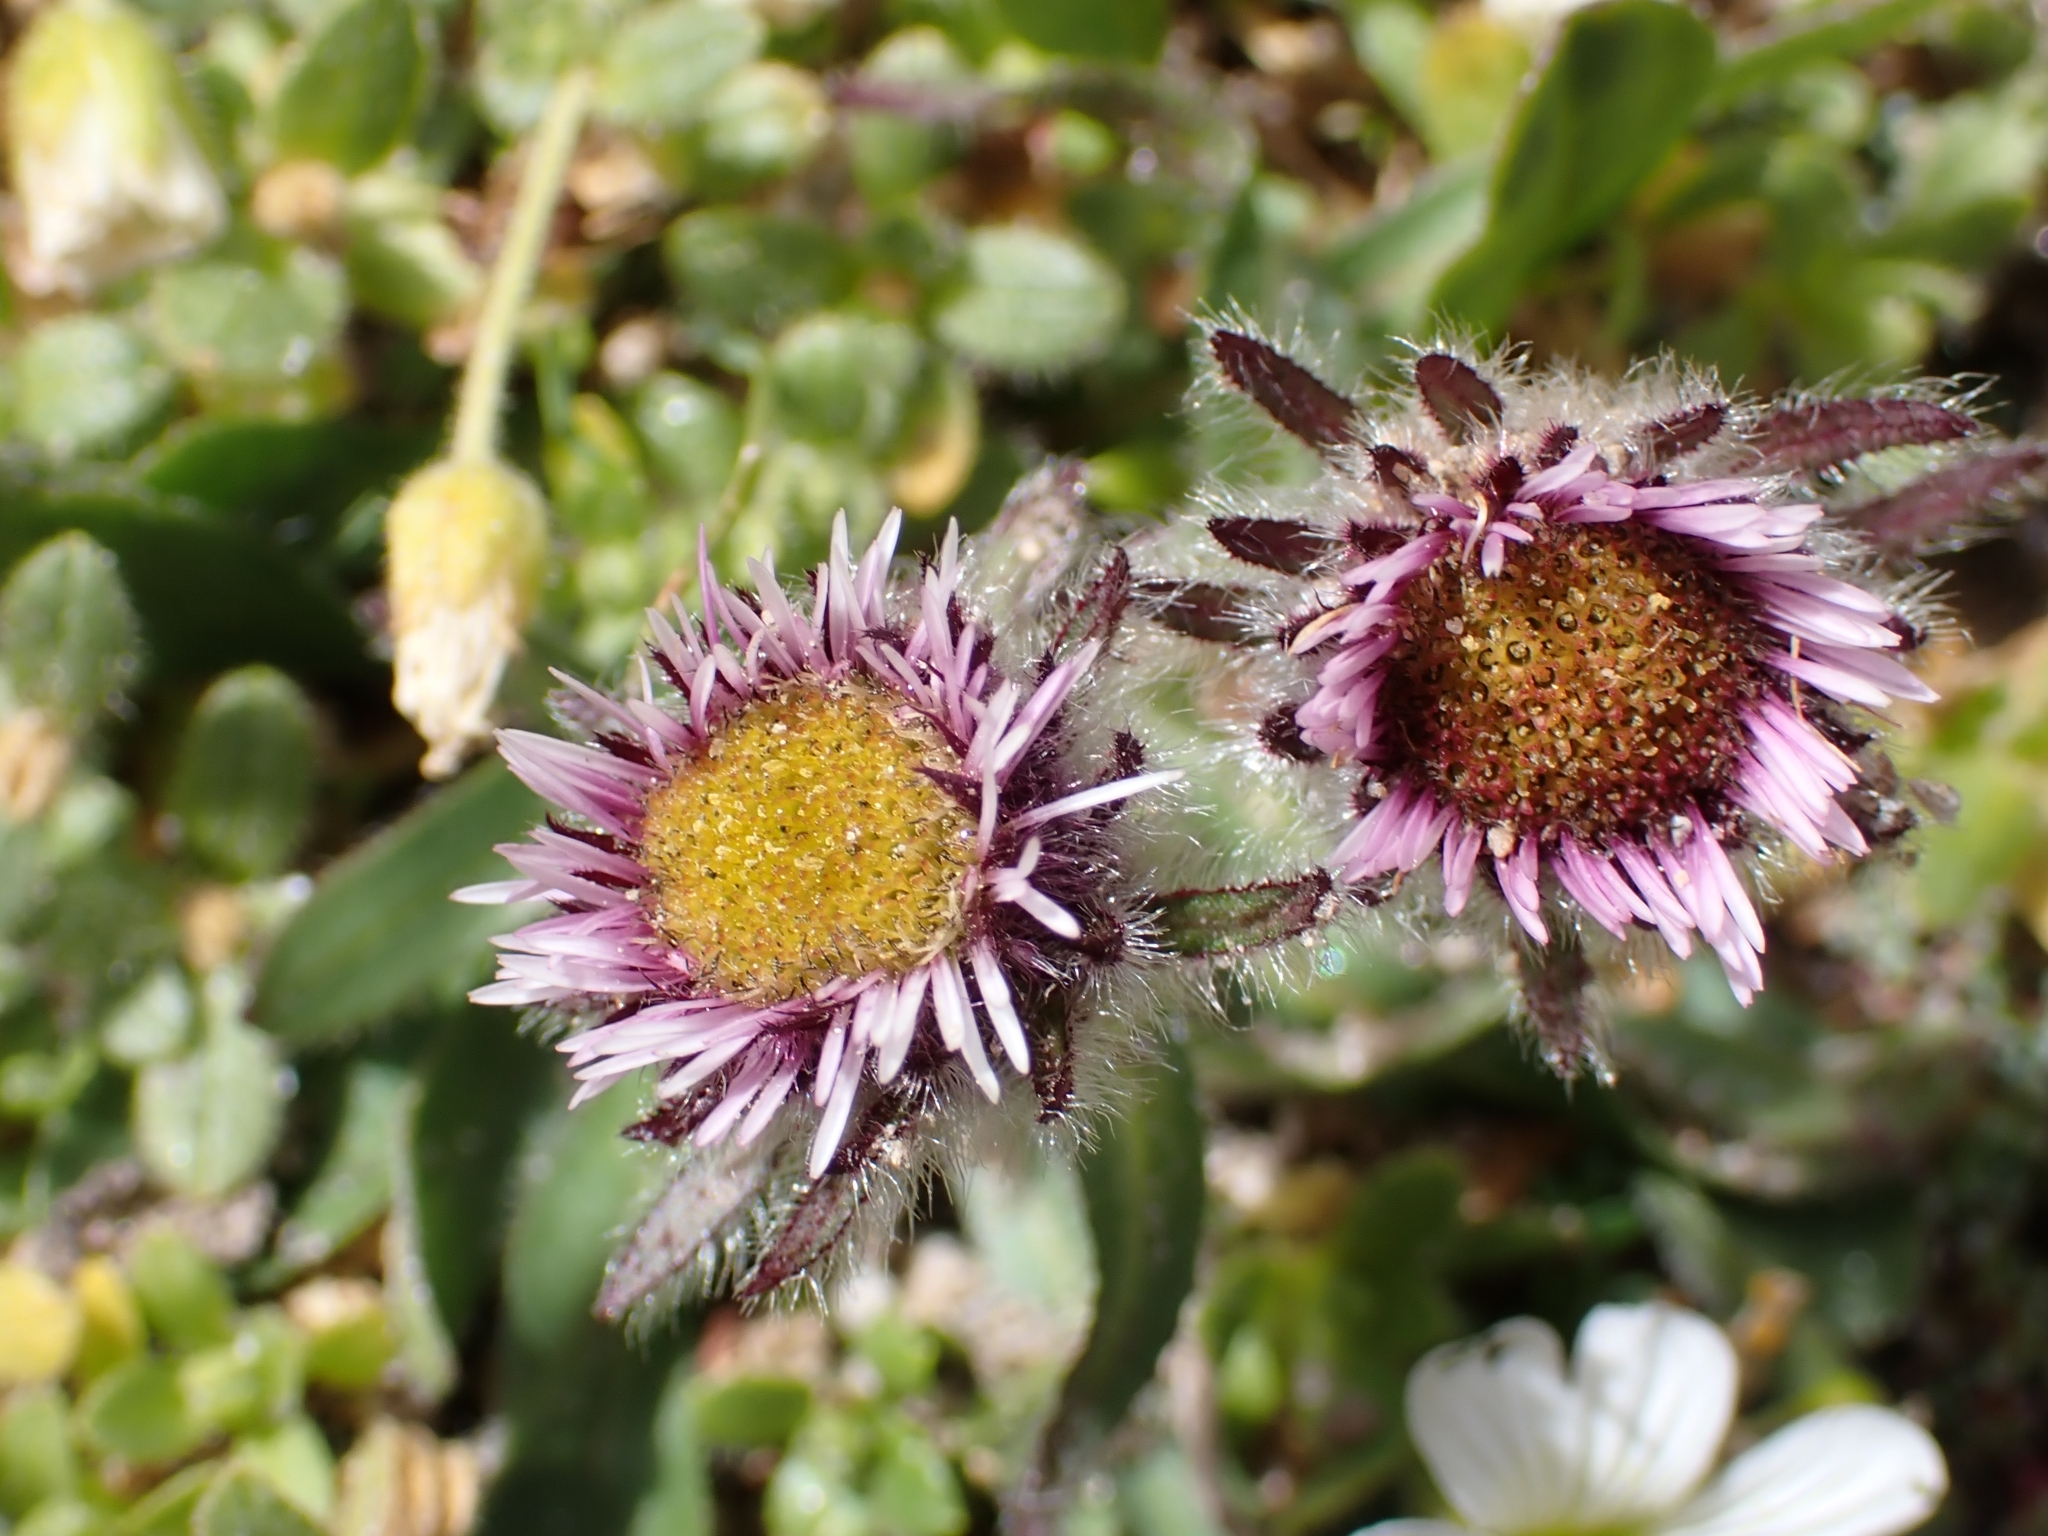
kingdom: Plantae
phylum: Tracheophyta
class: Magnoliopsida
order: Asterales
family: Asteraceae
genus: Erigeron
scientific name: Erigeron uniflorus
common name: Northern daisy
